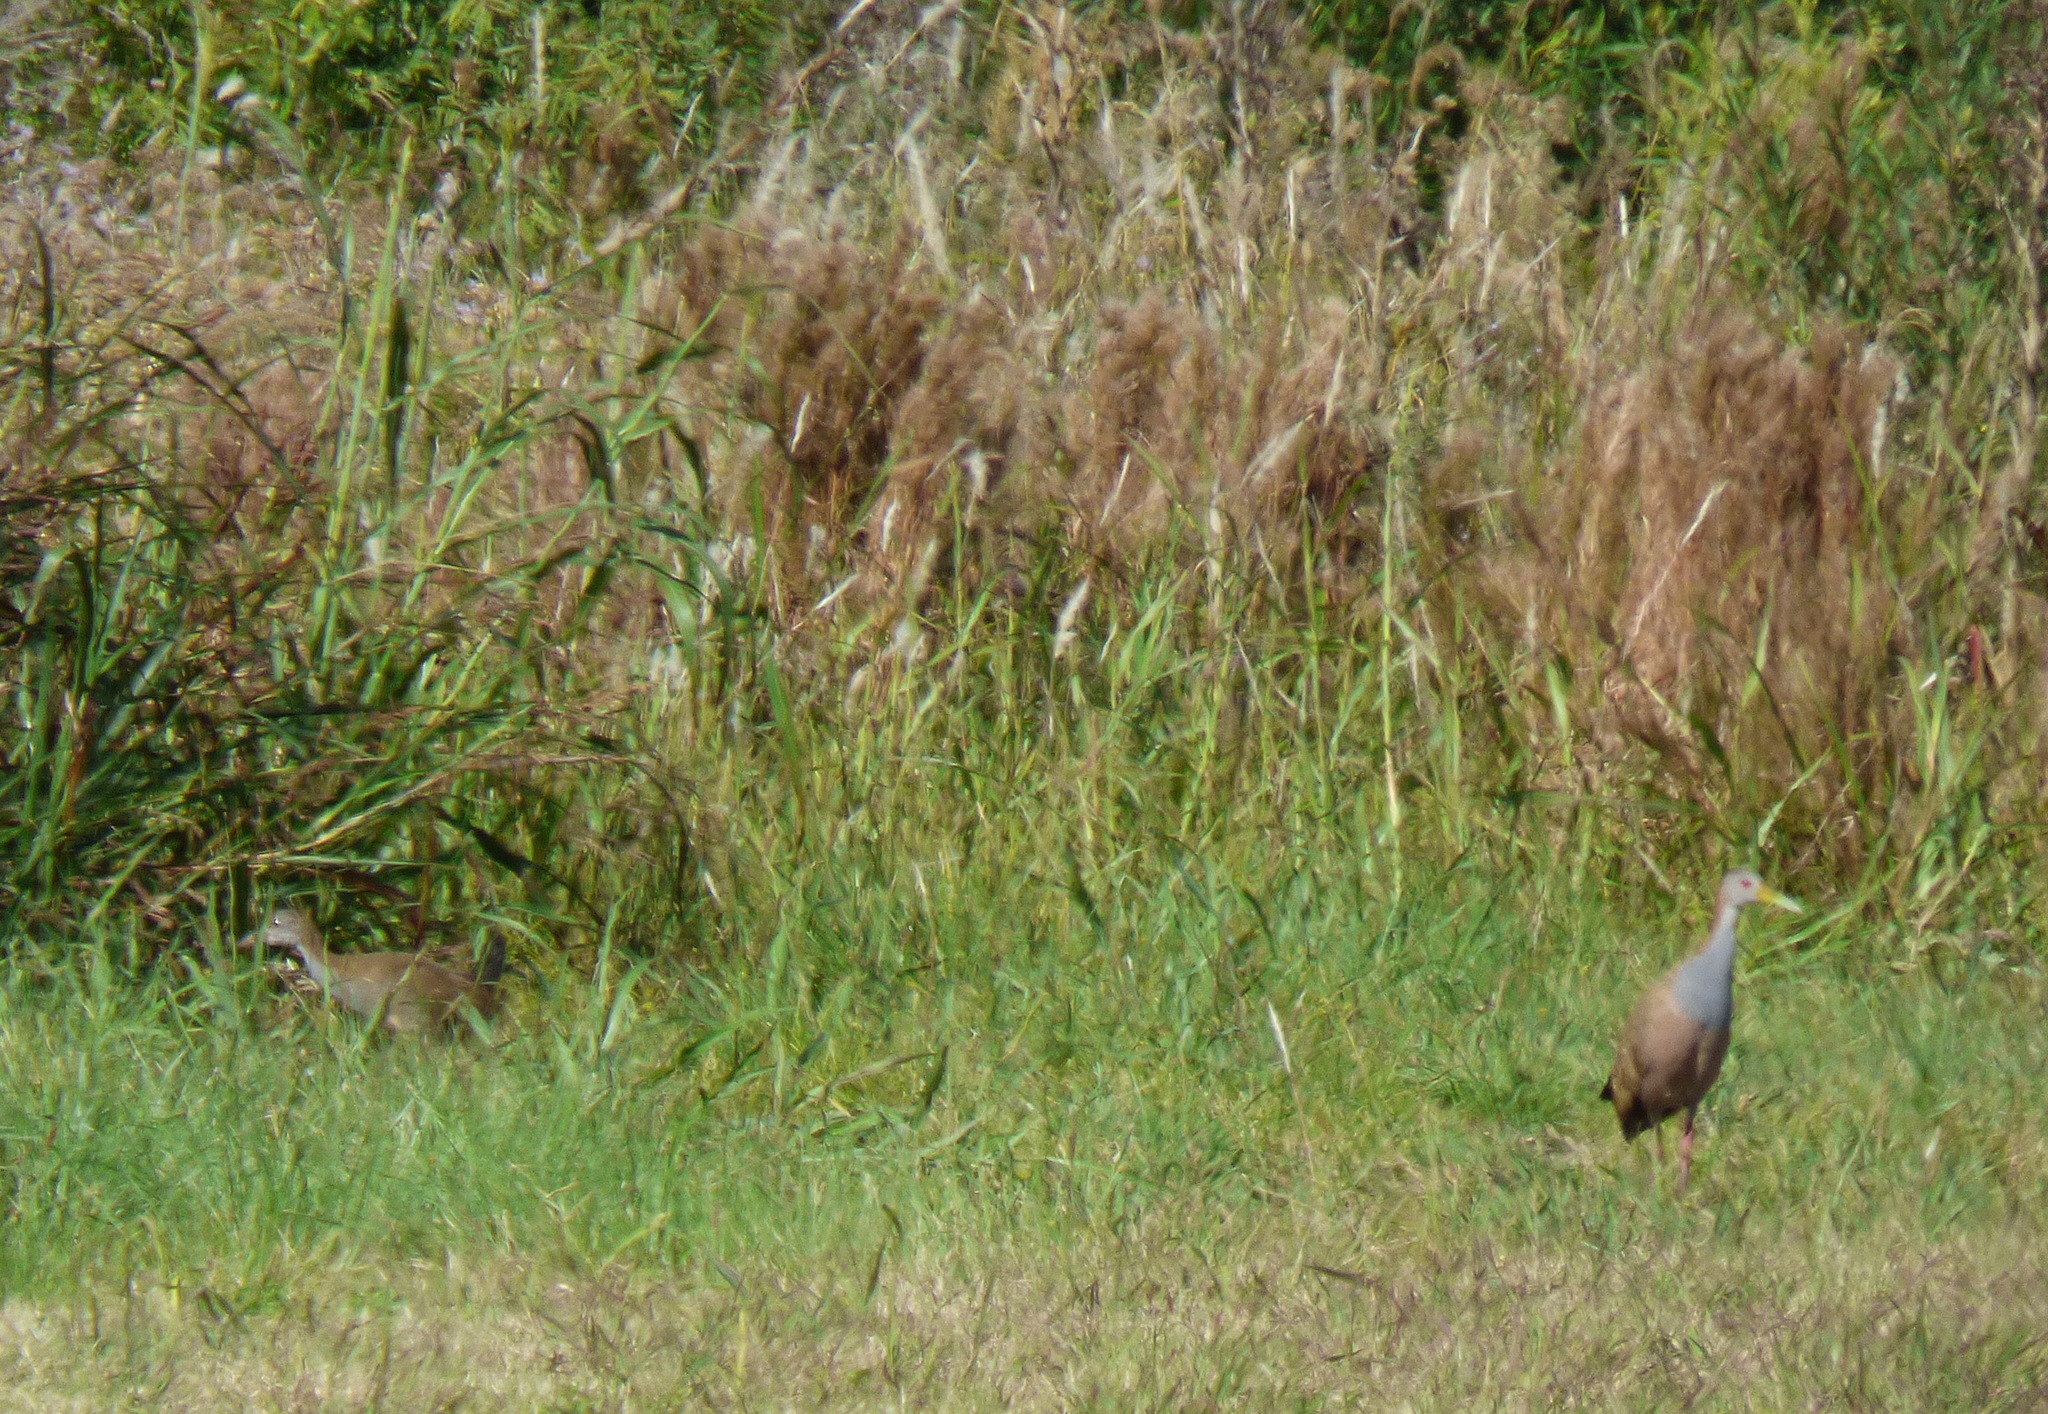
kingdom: Animalia
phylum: Chordata
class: Aves
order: Gruiformes
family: Rallidae
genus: Aramides
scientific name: Aramides ypecaha
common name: Giant wood rail
